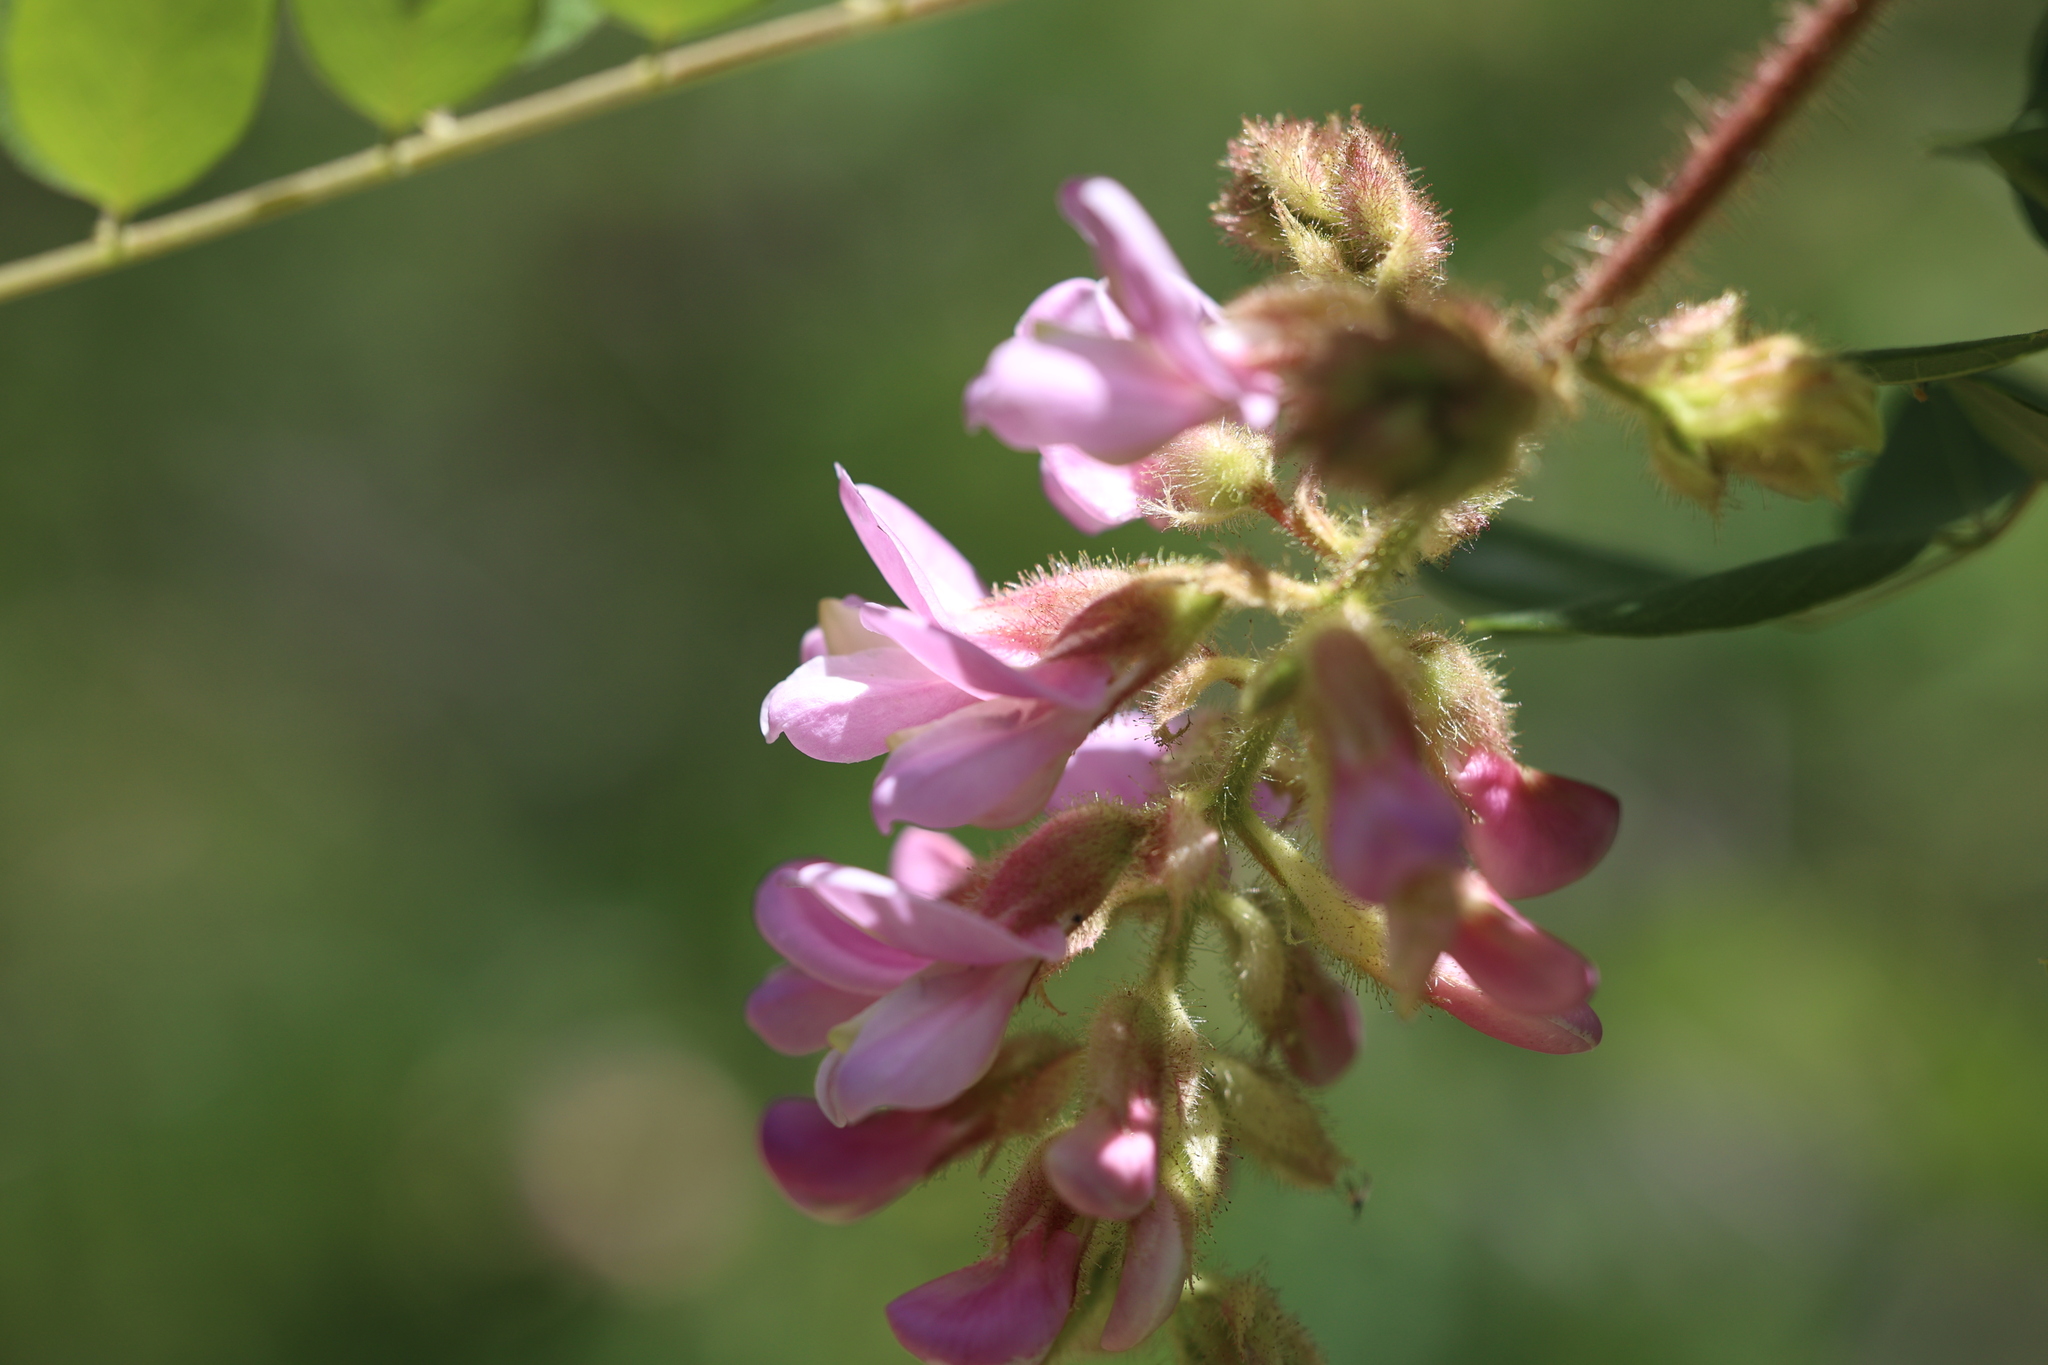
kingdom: Plantae
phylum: Tracheophyta
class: Magnoliopsida
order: Fabales
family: Fabaceae
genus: Robinia
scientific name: Robinia neomexicana
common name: New mexico locust
